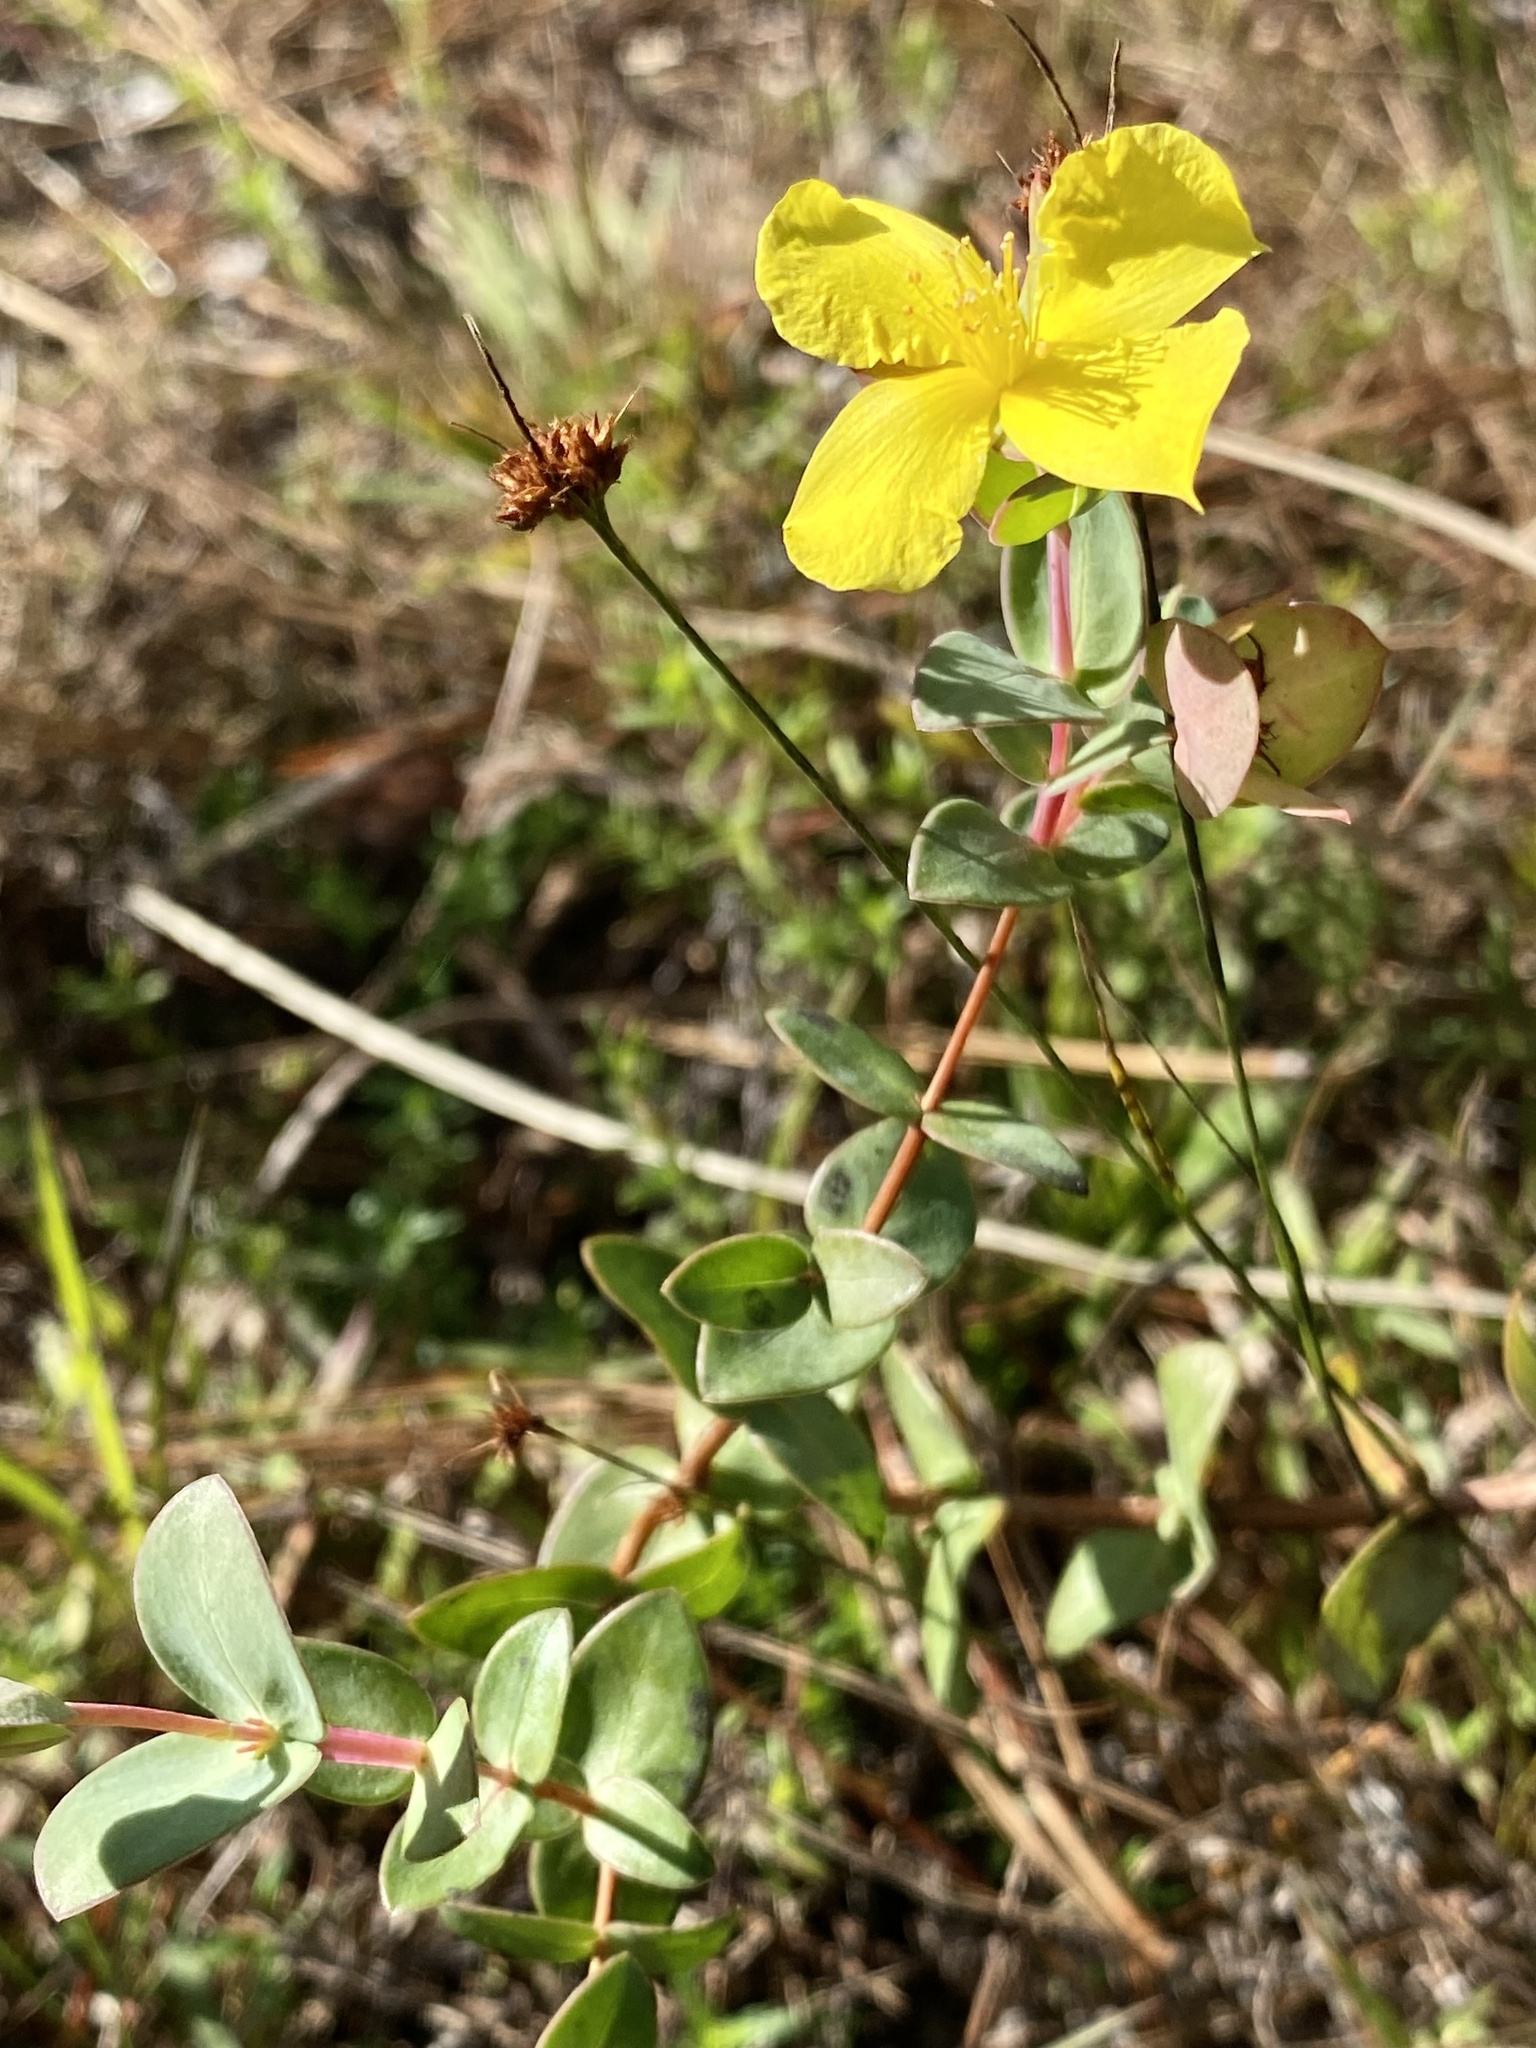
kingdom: Plantae
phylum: Tracheophyta
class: Magnoliopsida
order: Malpighiales
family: Hypericaceae
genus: Hypericum
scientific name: Hypericum tetrapetalum
